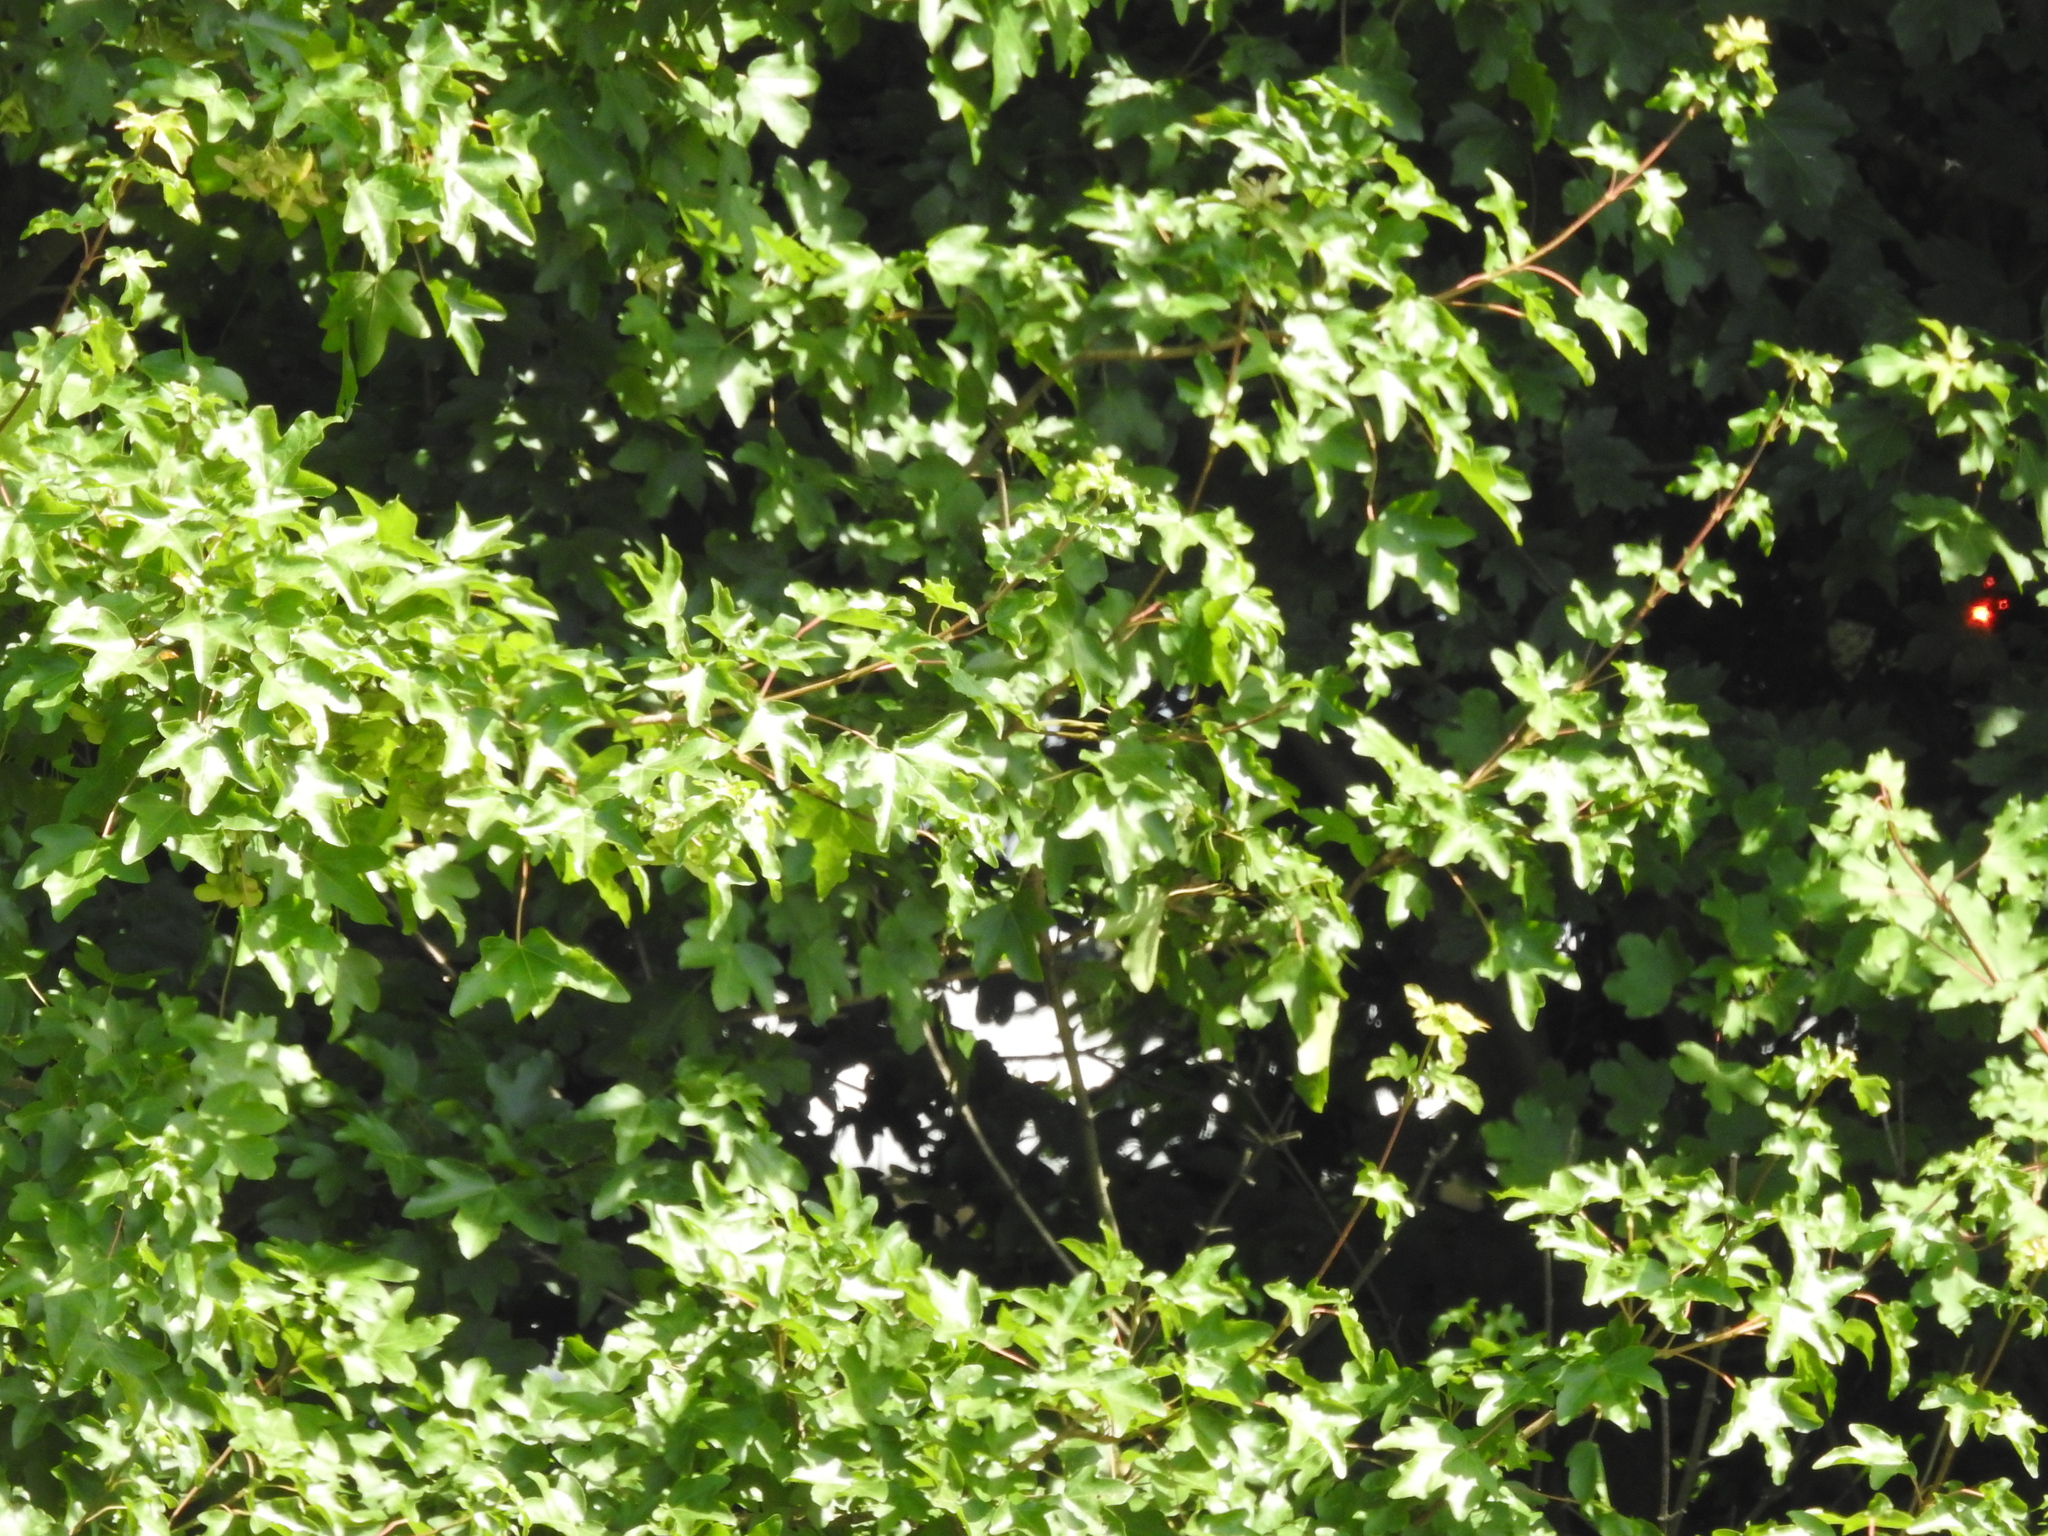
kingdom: Plantae
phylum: Tracheophyta
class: Magnoliopsida
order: Sapindales
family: Sapindaceae
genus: Acer
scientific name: Acer campestre
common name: Field maple
